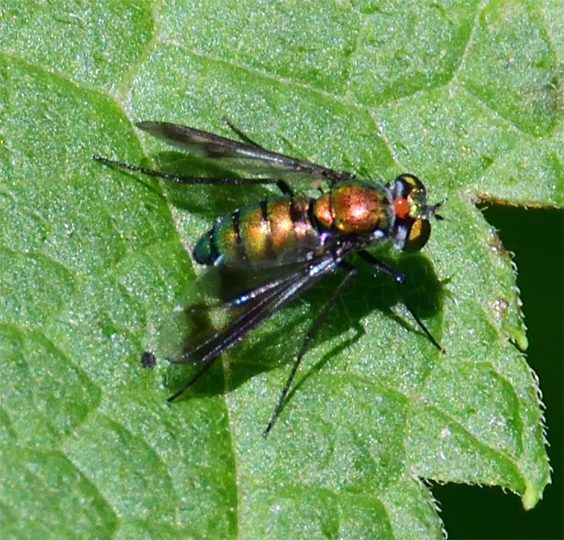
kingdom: Animalia
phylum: Arthropoda
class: Insecta
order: Diptera
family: Dolichopodidae
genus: Condylostylus
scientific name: Condylostylus patibulatus
